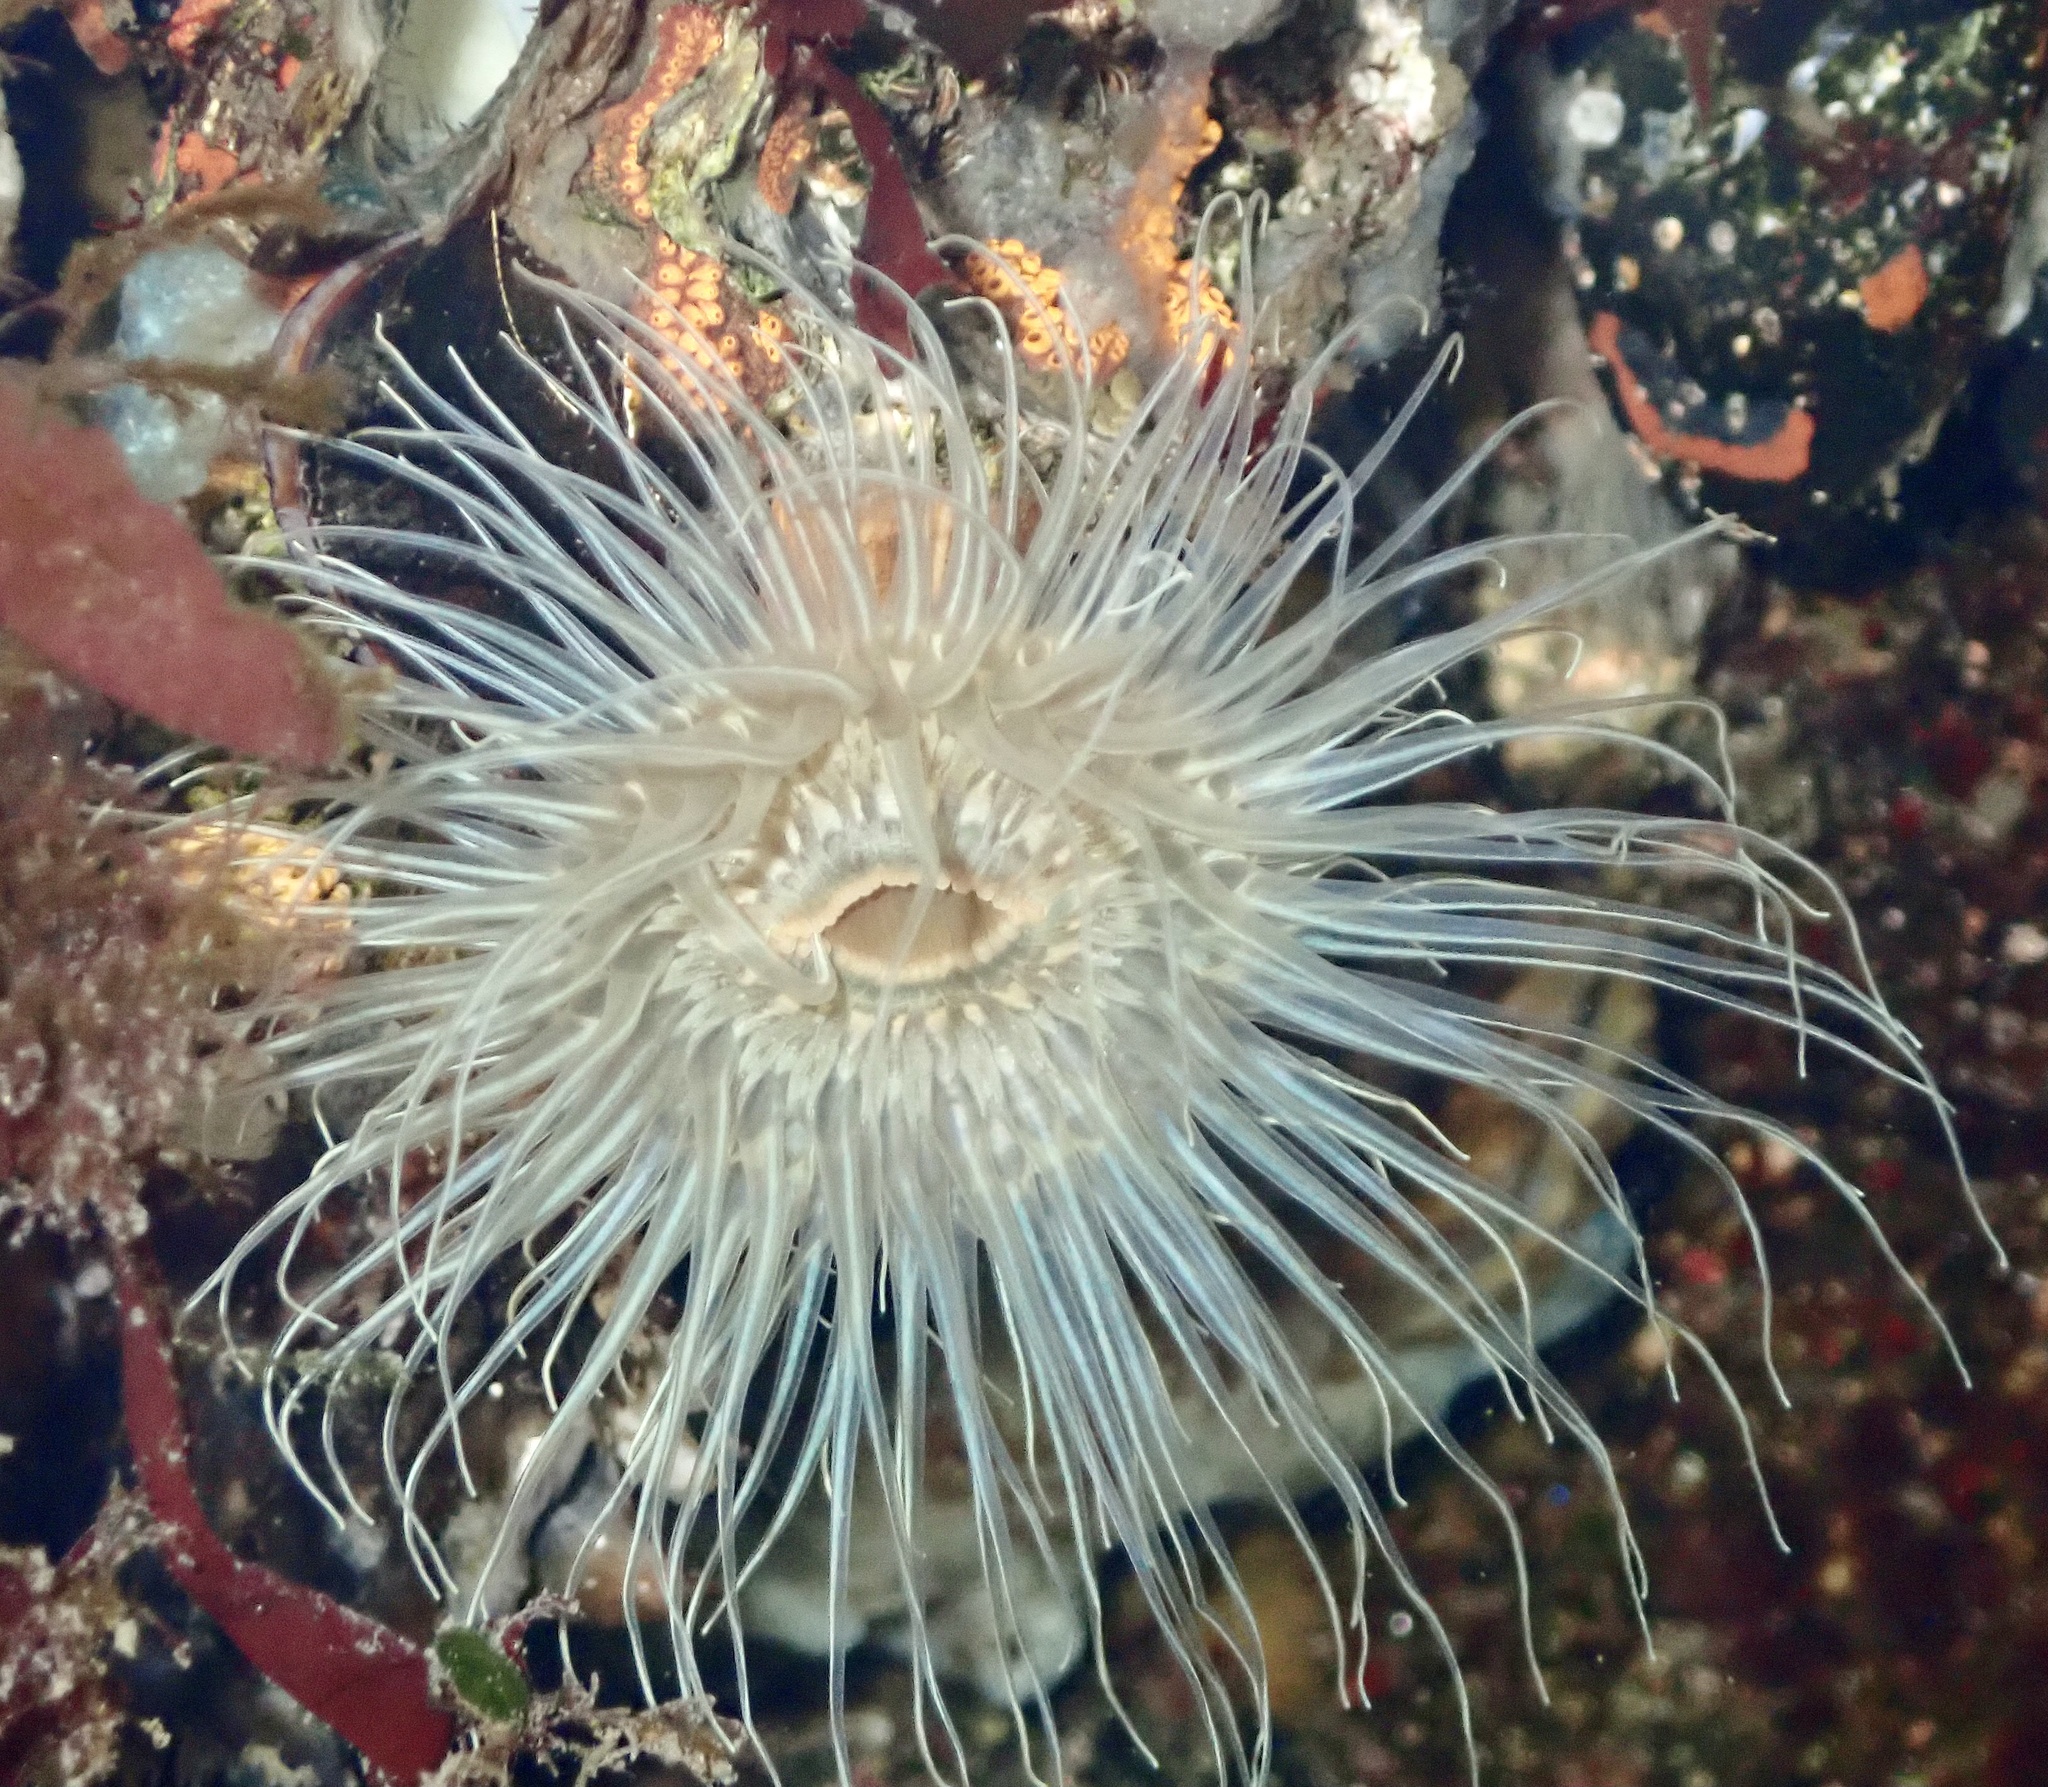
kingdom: Animalia
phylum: Cnidaria
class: Anthozoa
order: Actiniaria
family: Sagartiidae
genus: Sagartia
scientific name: Sagartia undata
